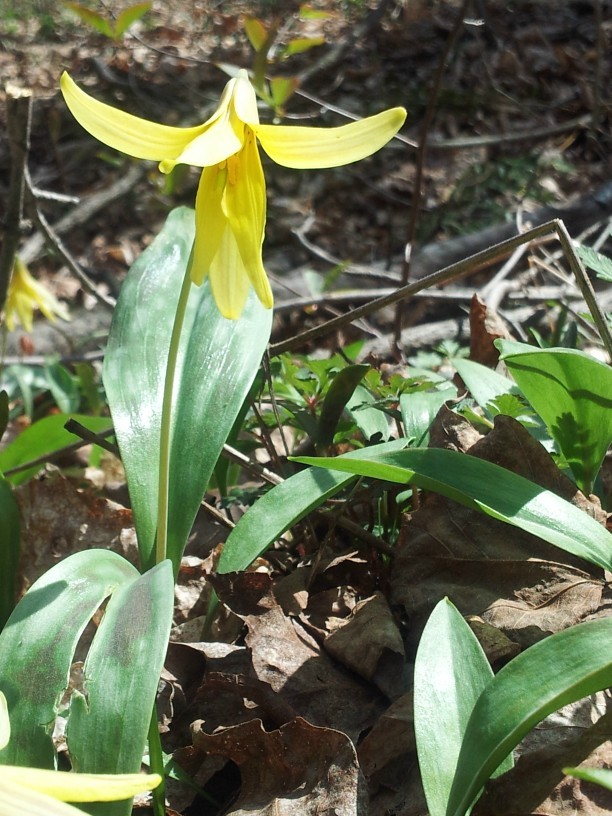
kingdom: Plantae
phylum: Tracheophyta
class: Liliopsida
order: Liliales
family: Liliaceae
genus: Erythronium
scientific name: Erythronium americanum
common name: Yellow adder's-tongue
